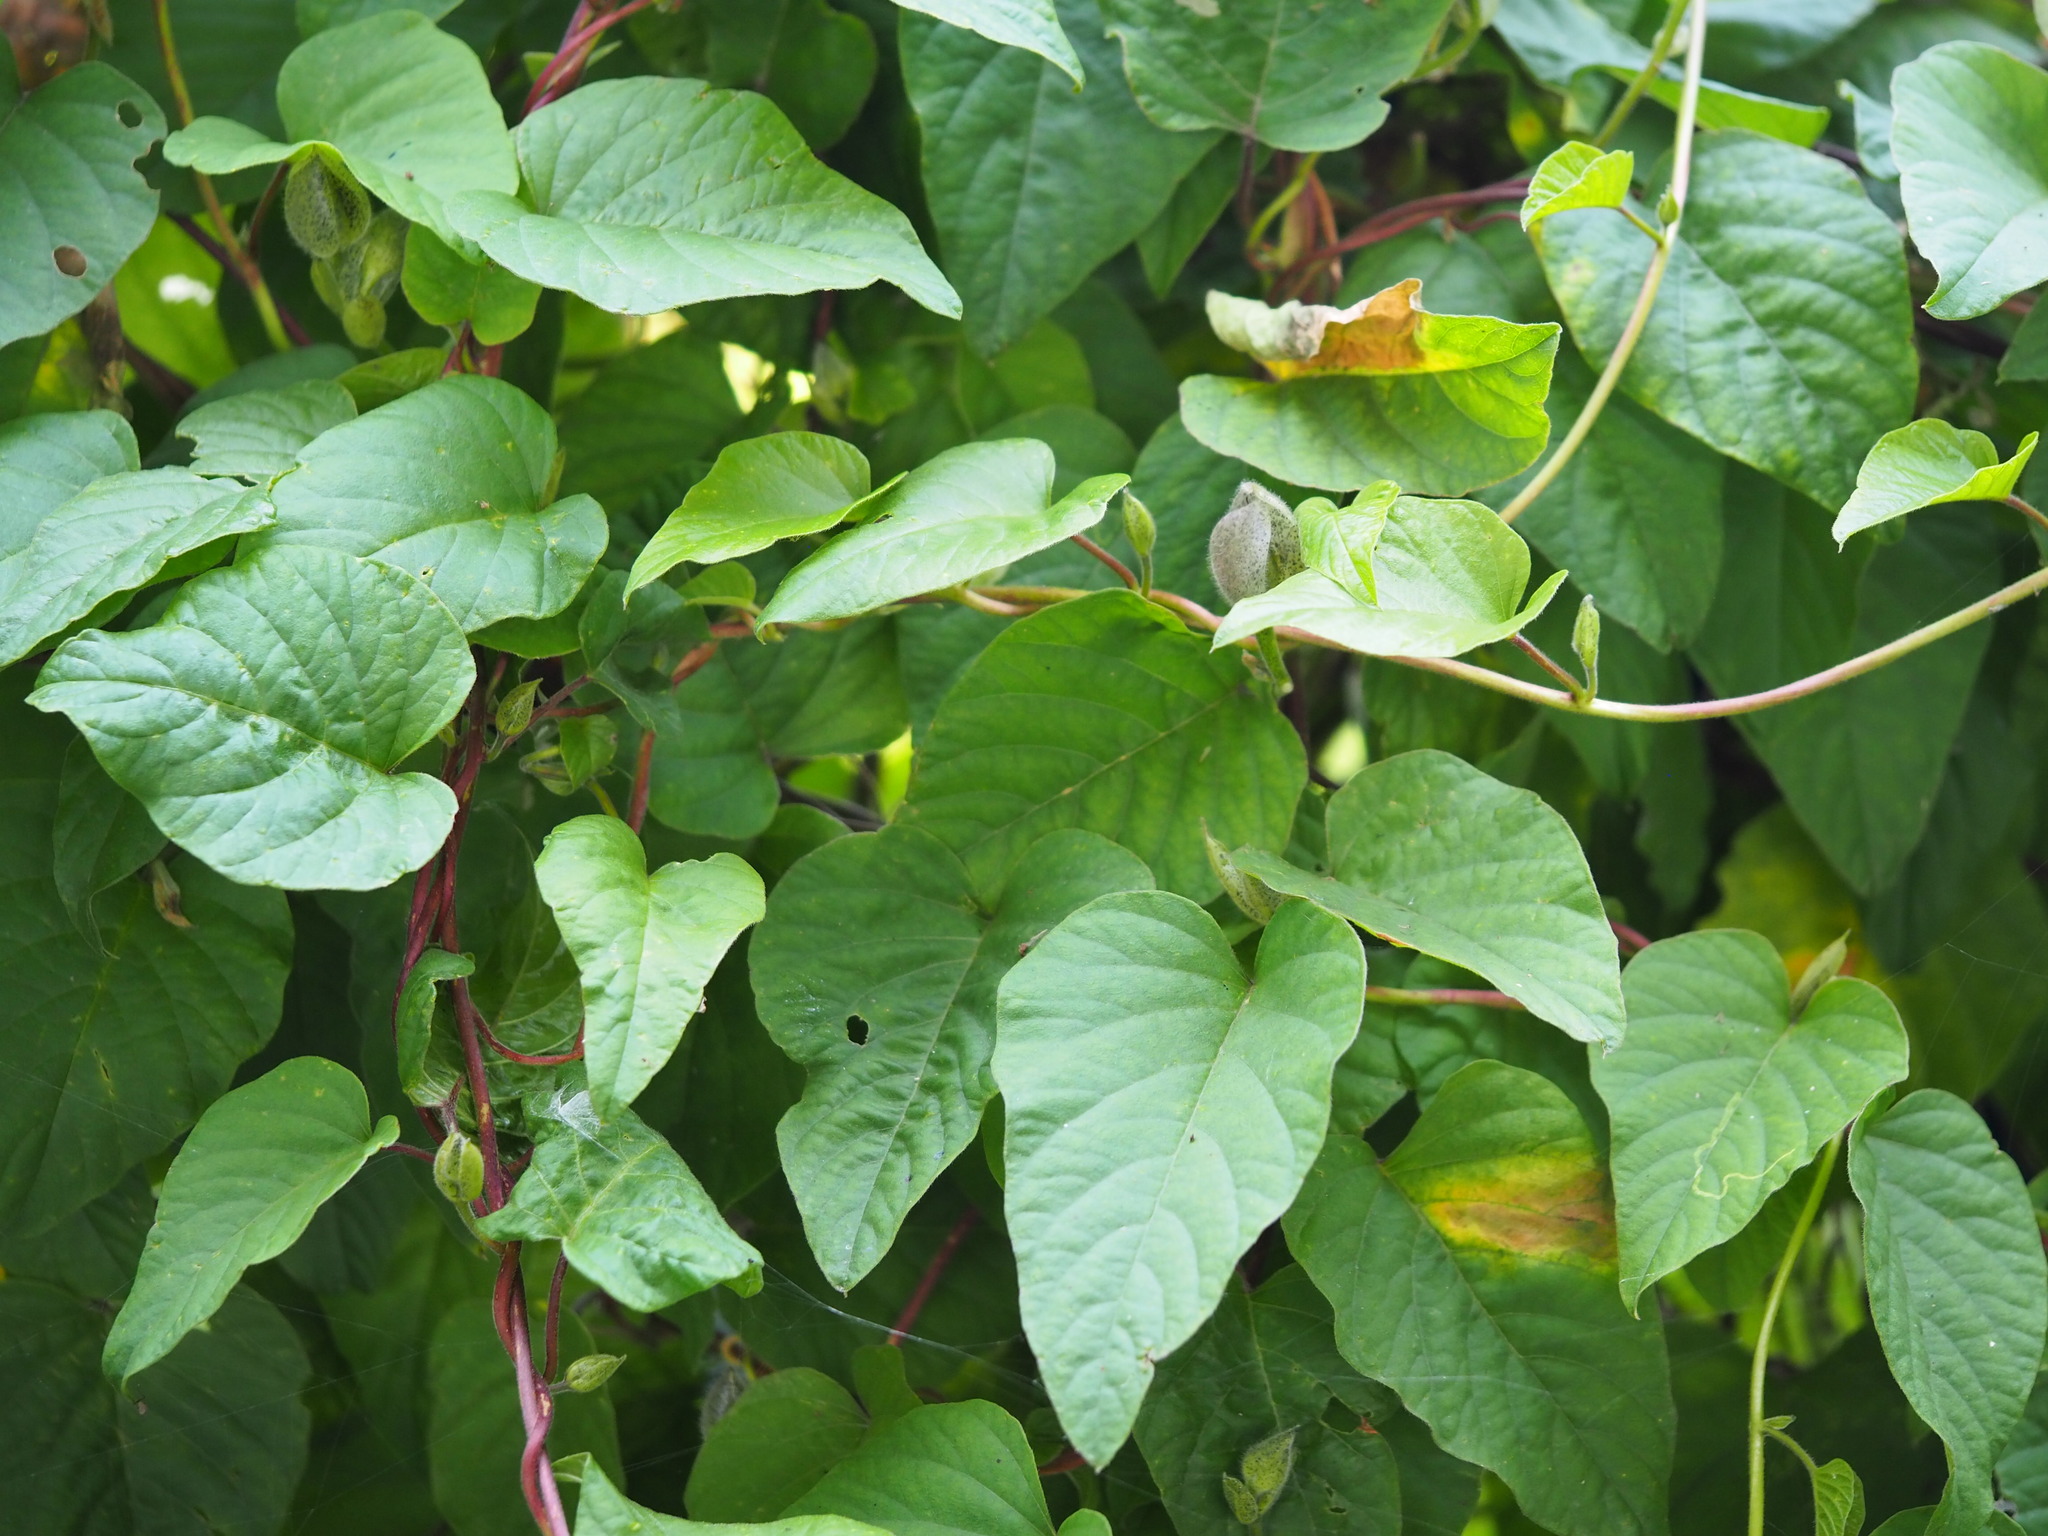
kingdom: Plantae
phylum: Tracheophyta
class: Magnoliopsida
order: Solanales
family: Convolvulaceae
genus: Operculina
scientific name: Operculina turpethum
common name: Transparent wood-rose
